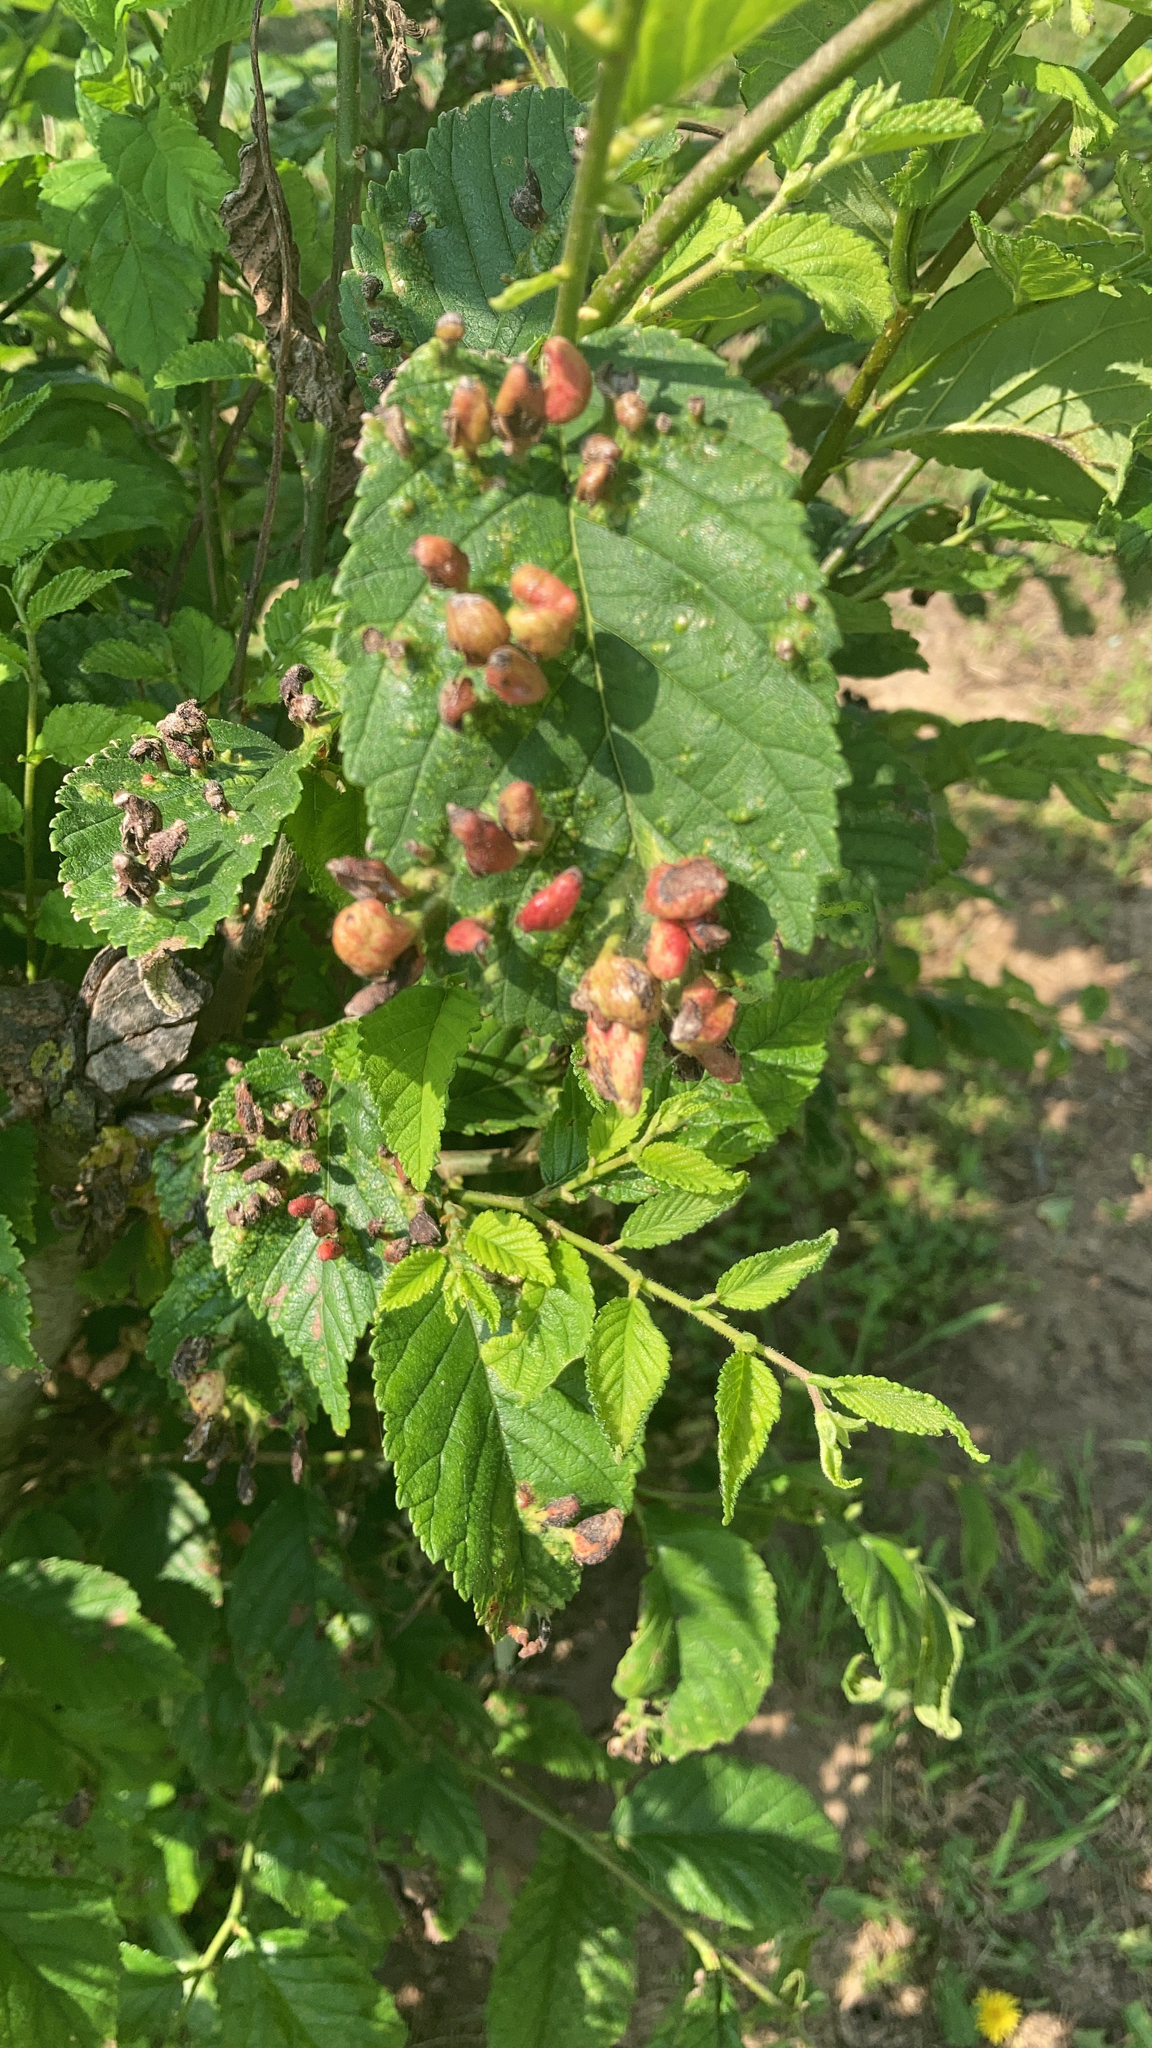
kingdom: Animalia
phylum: Arthropoda
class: Insecta
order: Hemiptera
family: Aphididae
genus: Tetraneura
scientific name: Tetraneura nigriabdominalis
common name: Aphid
